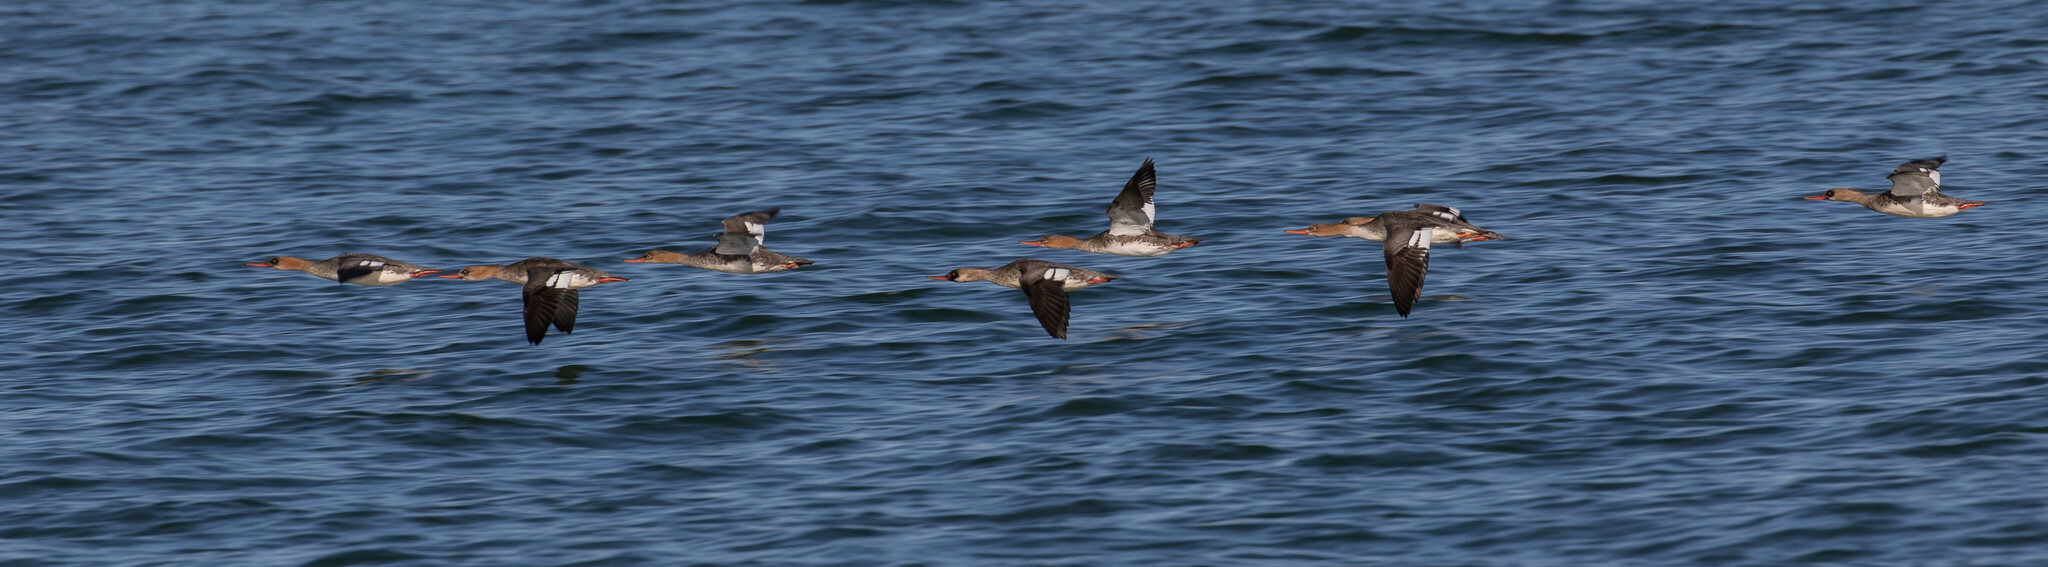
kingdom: Animalia
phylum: Chordata
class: Aves
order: Anseriformes
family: Anatidae
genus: Mergus
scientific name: Mergus serrator
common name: Red-breasted merganser
